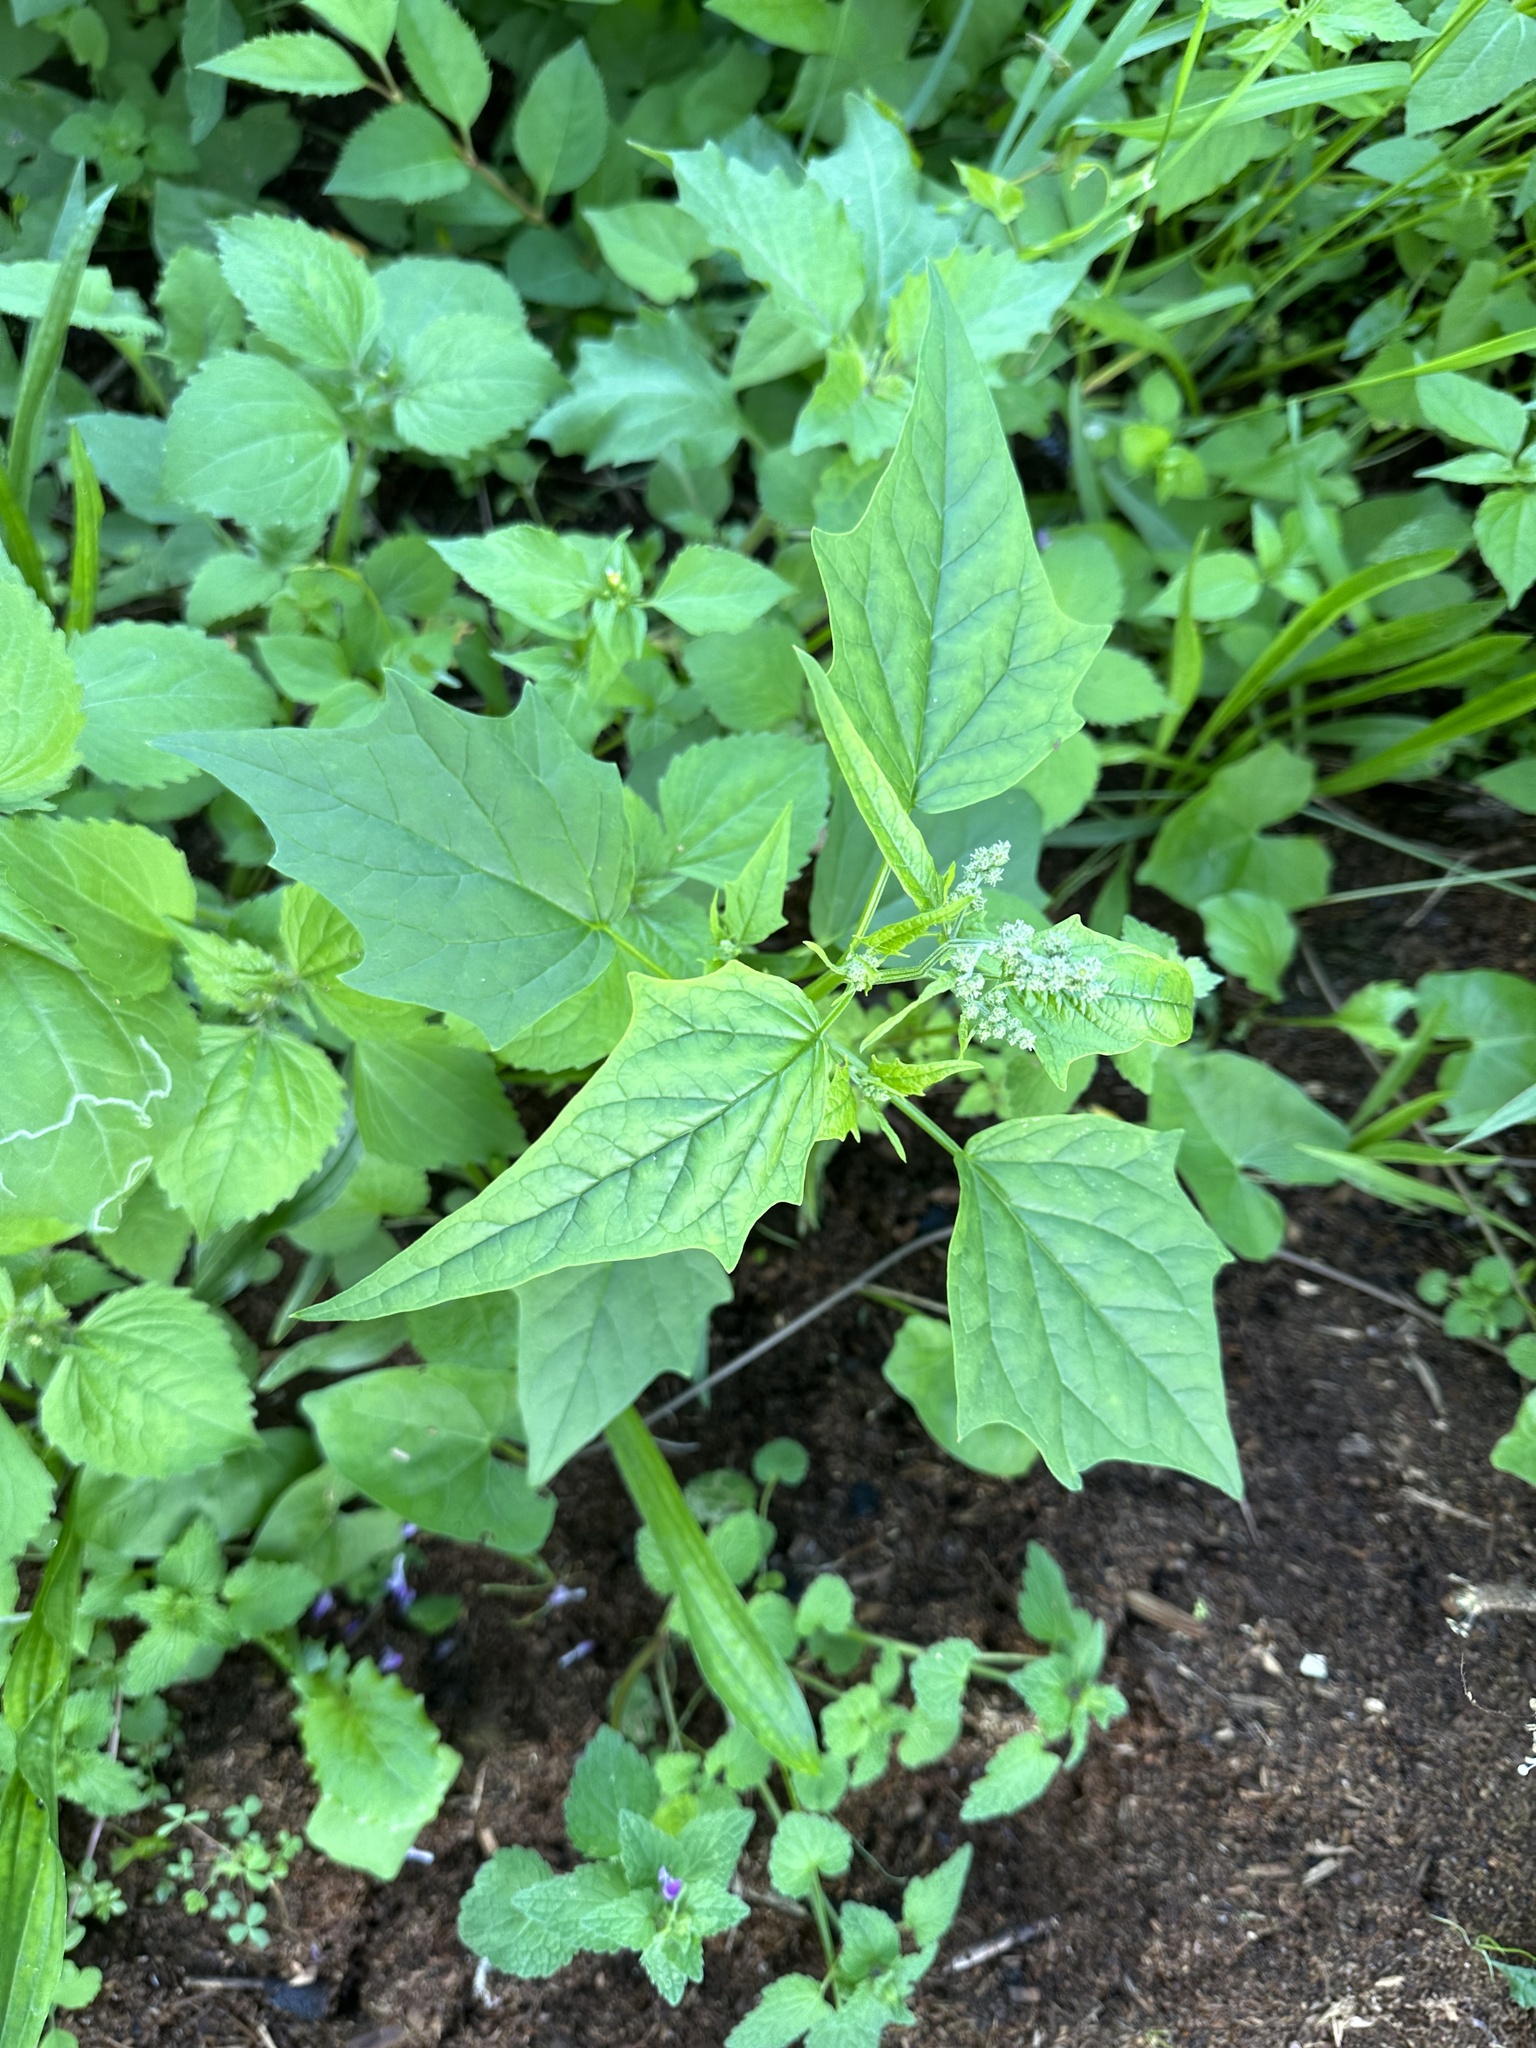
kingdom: Plantae
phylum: Tracheophyta
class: Magnoliopsida
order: Caryophyllales
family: Amaranthaceae
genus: Chenopodiastrum
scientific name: Chenopodiastrum hybridum
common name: Mapleleaf goosefoot
